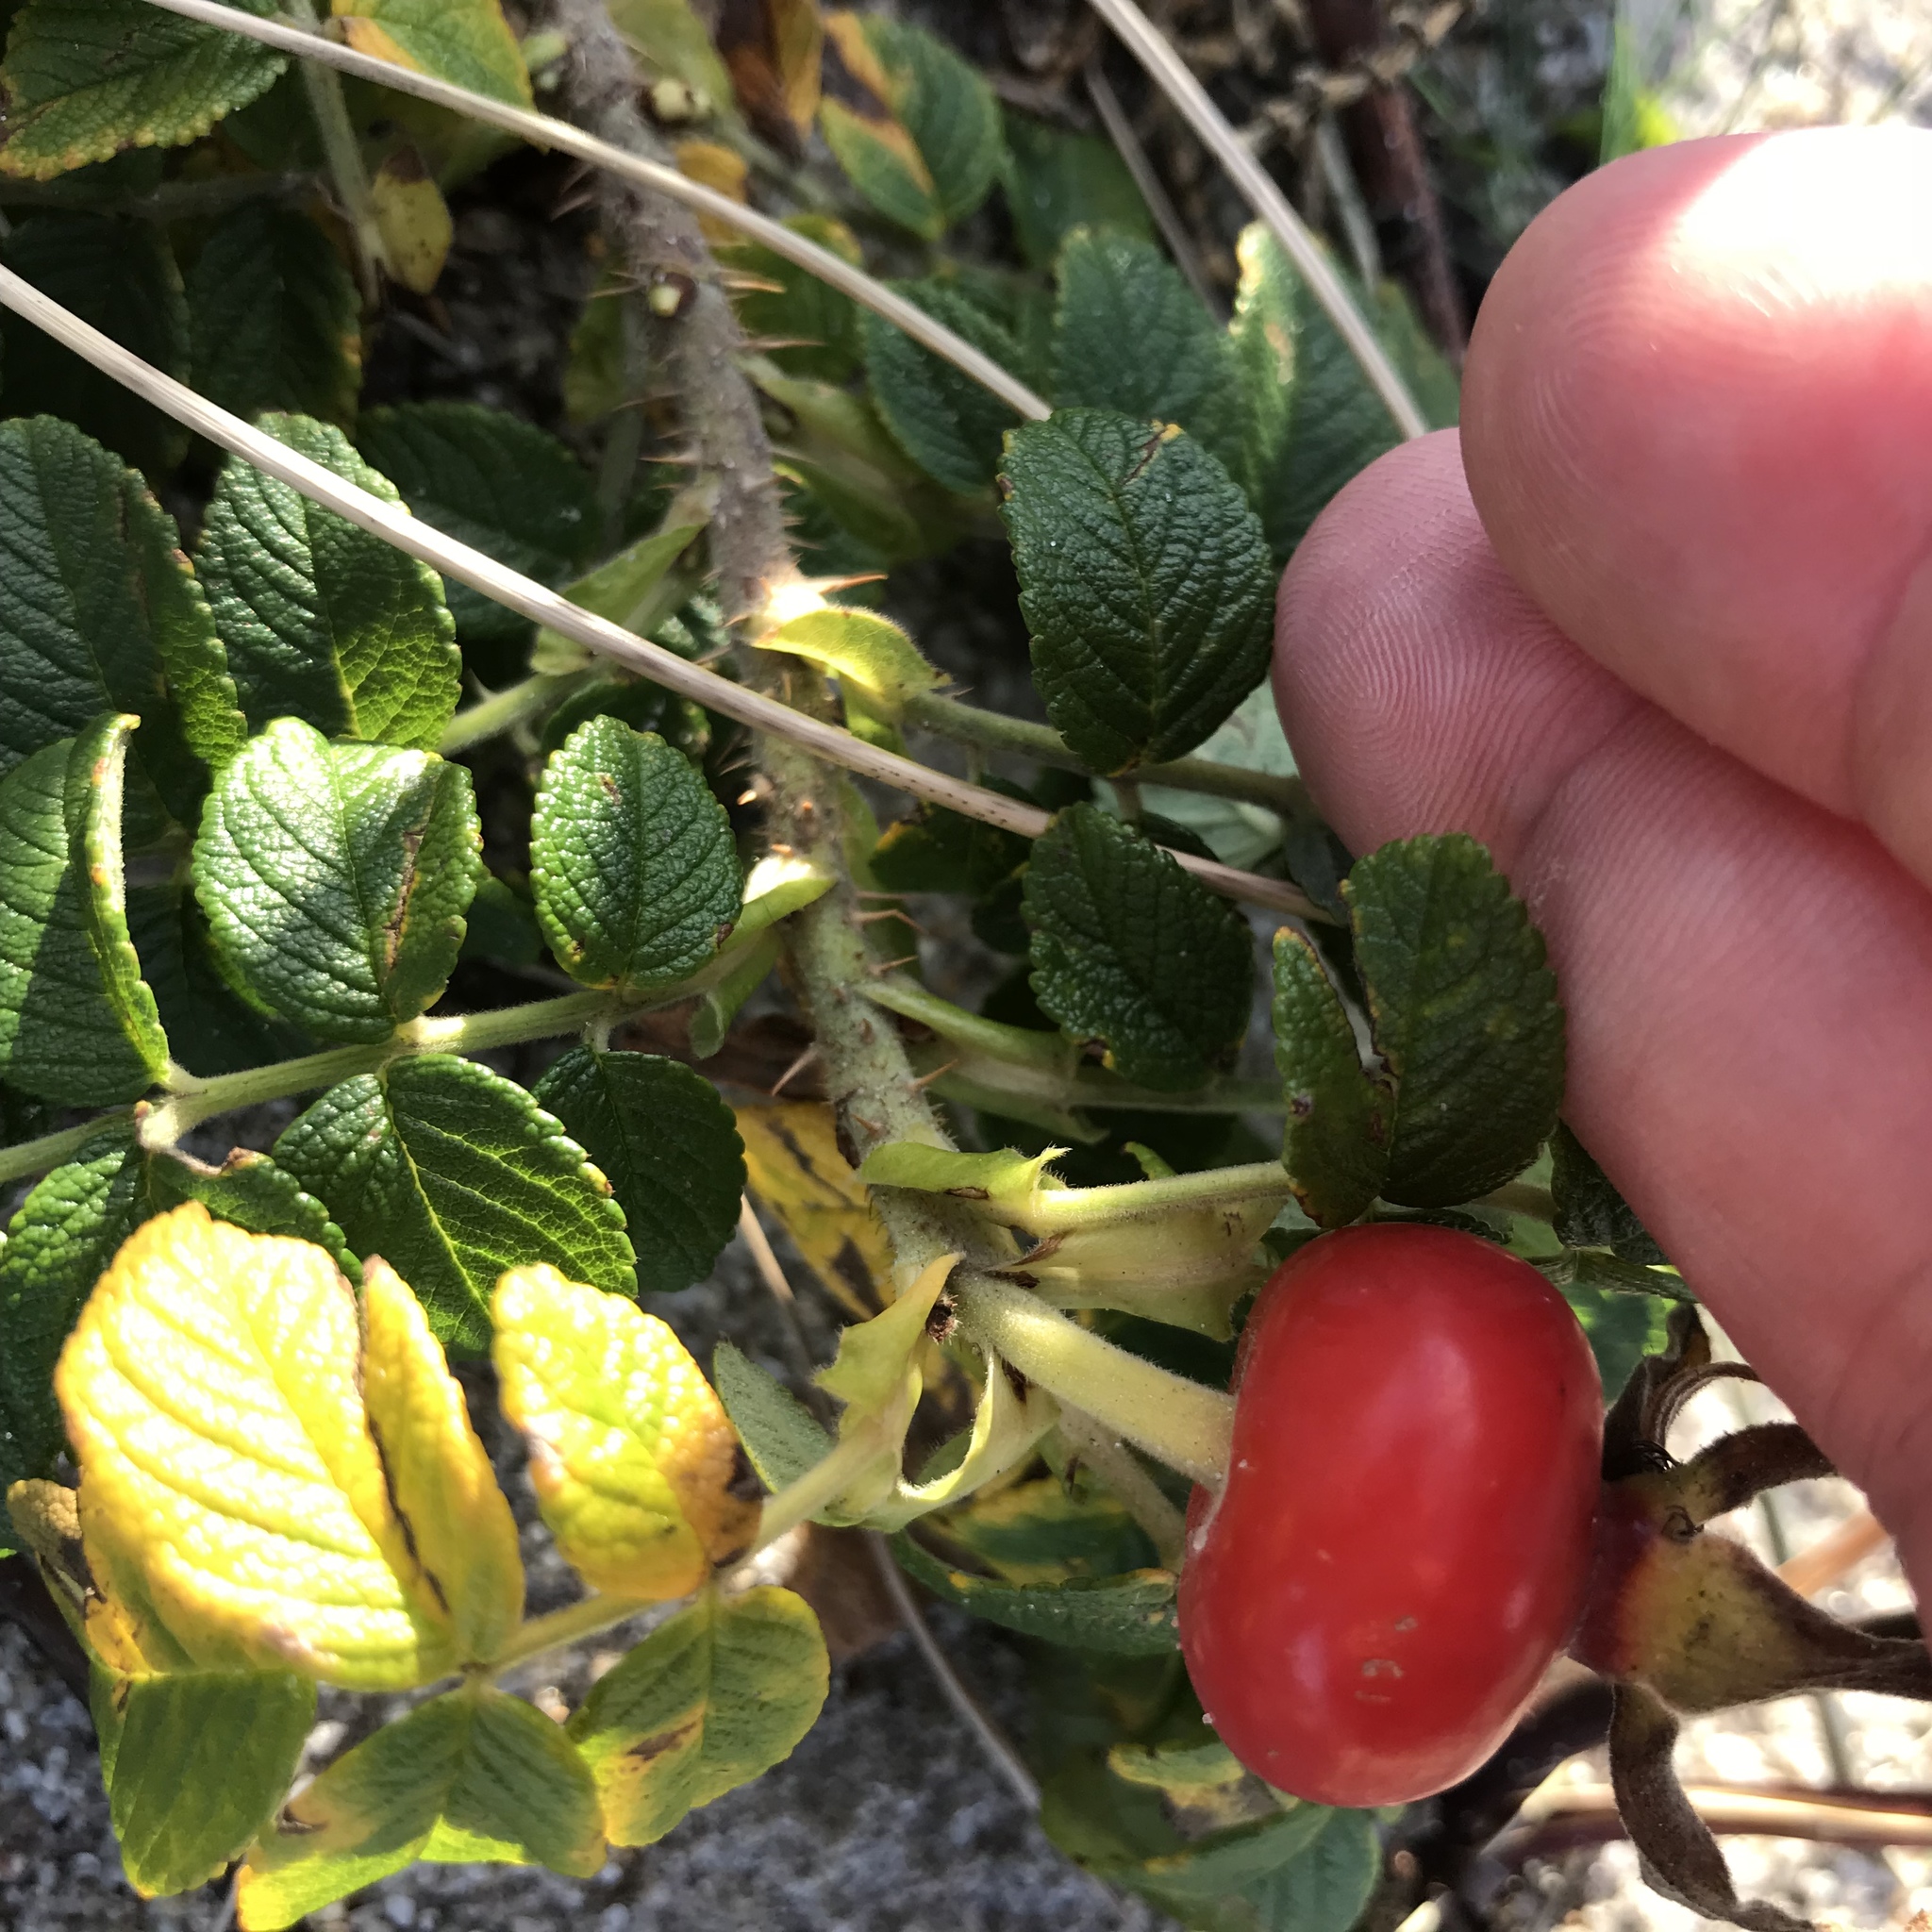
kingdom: Plantae
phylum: Tracheophyta
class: Magnoliopsida
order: Rosales
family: Rosaceae
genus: Rosa
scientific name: Rosa rugosa
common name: Japanese rose
